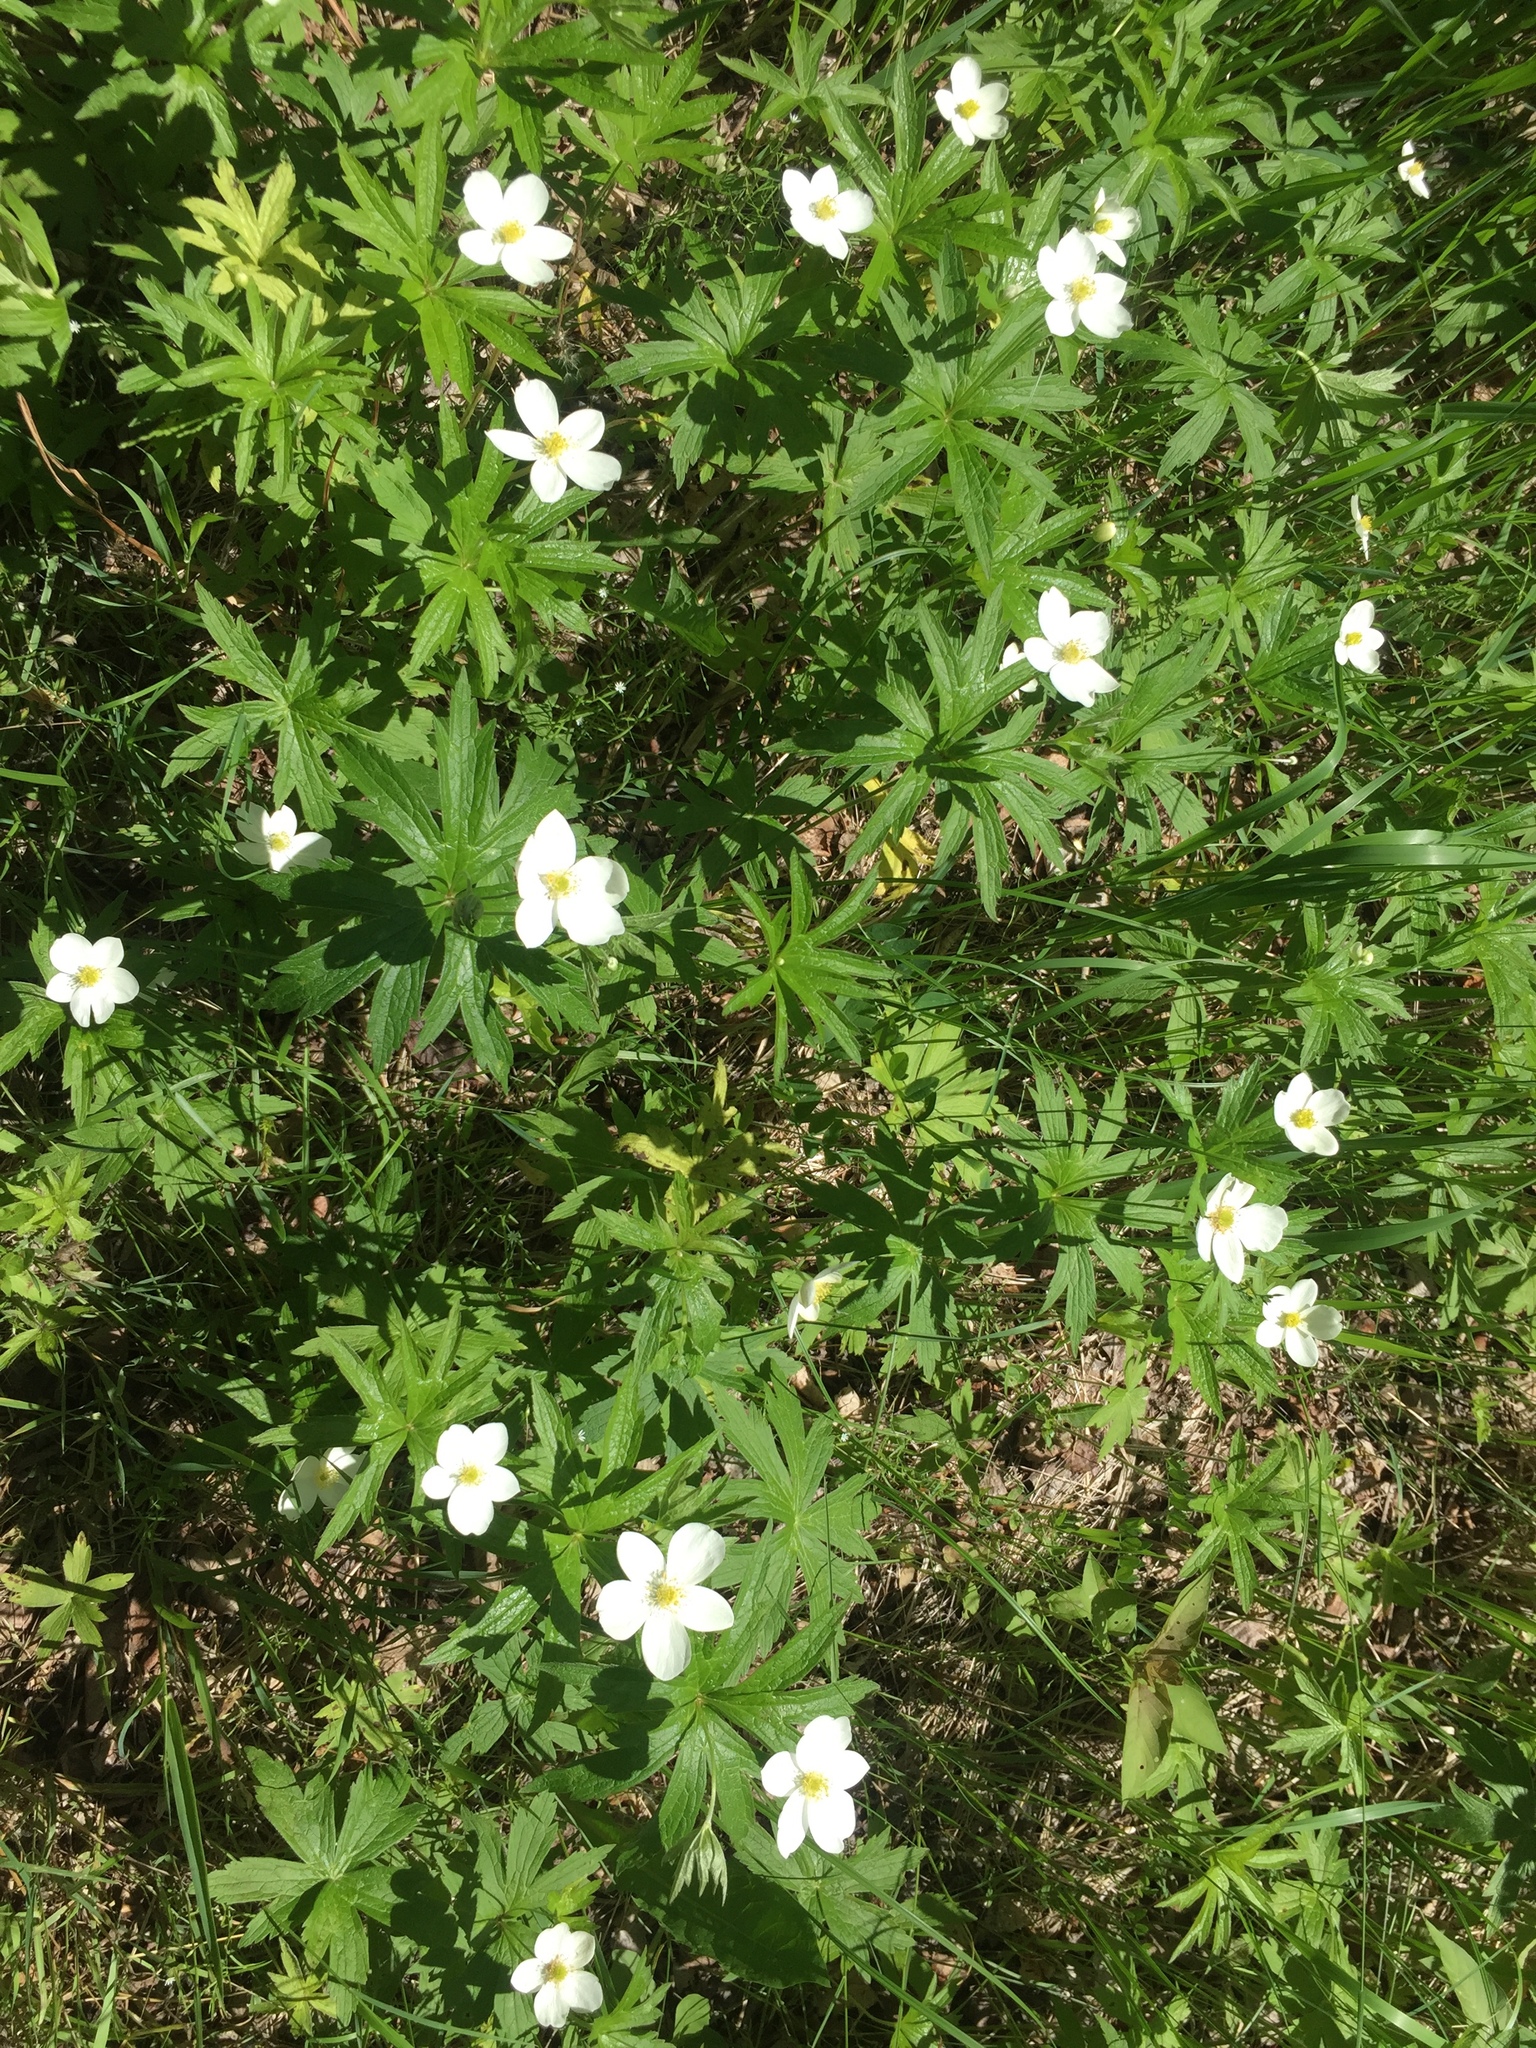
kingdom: Plantae
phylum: Tracheophyta
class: Magnoliopsida
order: Ranunculales
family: Ranunculaceae
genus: Anemonastrum
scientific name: Anemonastrum canadense
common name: Canada anemone
